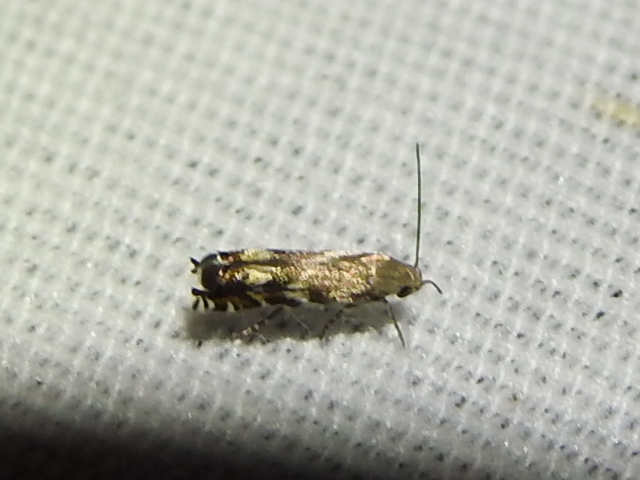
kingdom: Animalia
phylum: Arthropoda
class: Insecta
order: Lepidoptera
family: Gelechiidae
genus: Calliprora
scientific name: Calliprora sexstrigella
